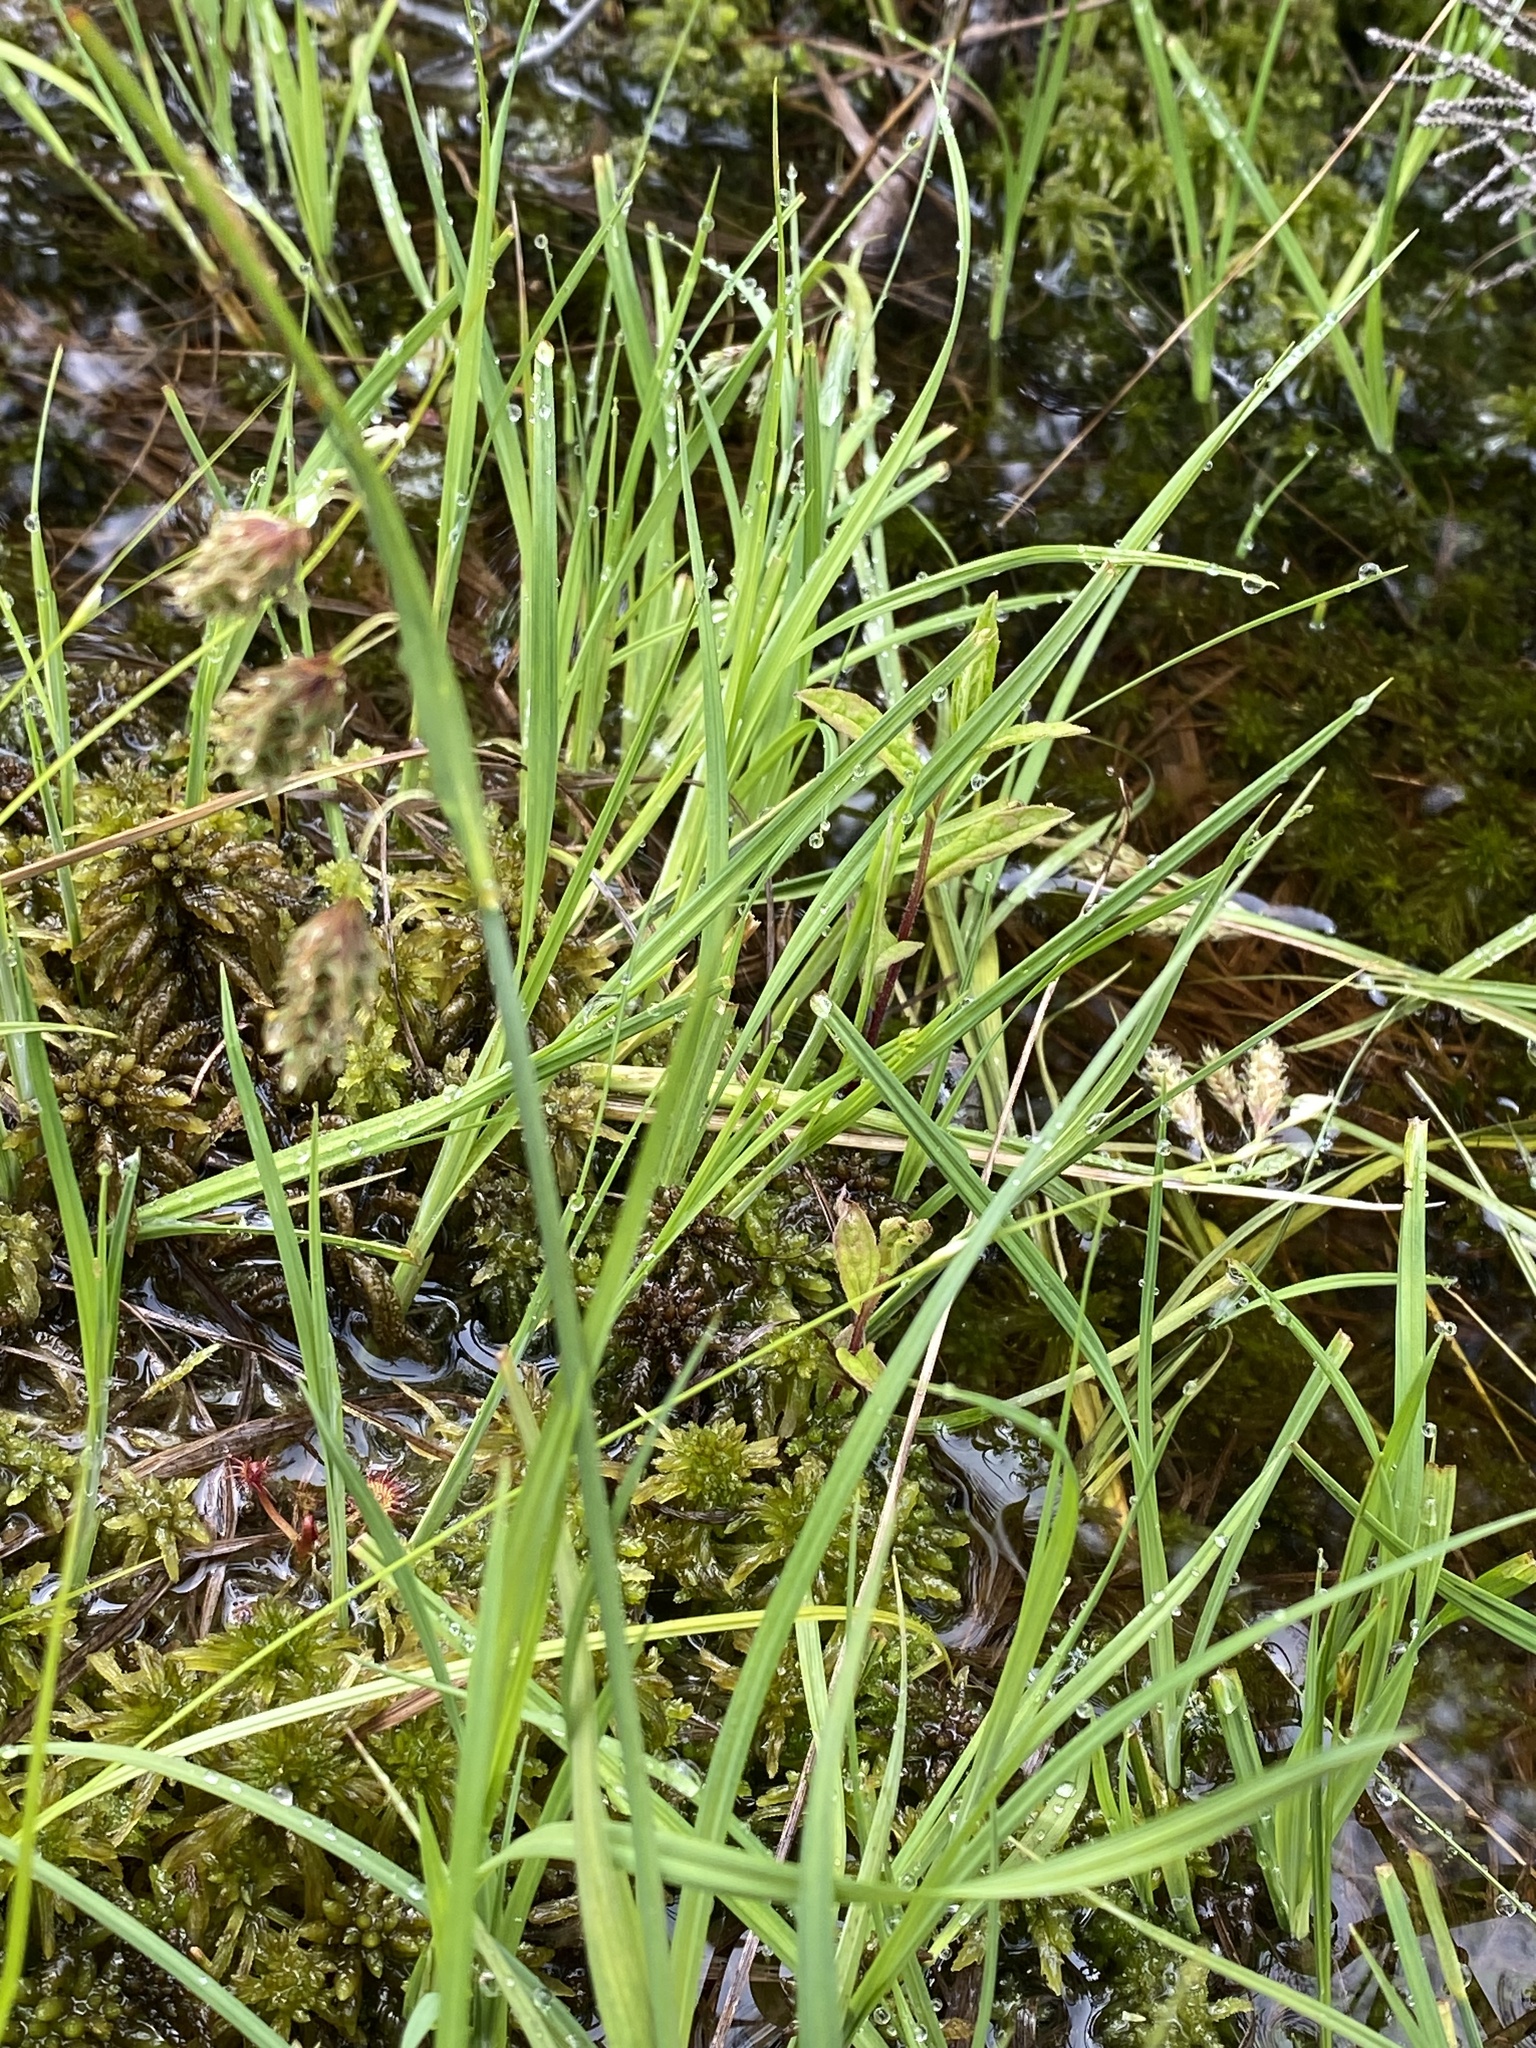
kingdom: Plantae
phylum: Tracheophyta
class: Liliopsida
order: Poales
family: Cyperaceae
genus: Carex
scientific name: Carex magellanica
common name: Bog sedge
